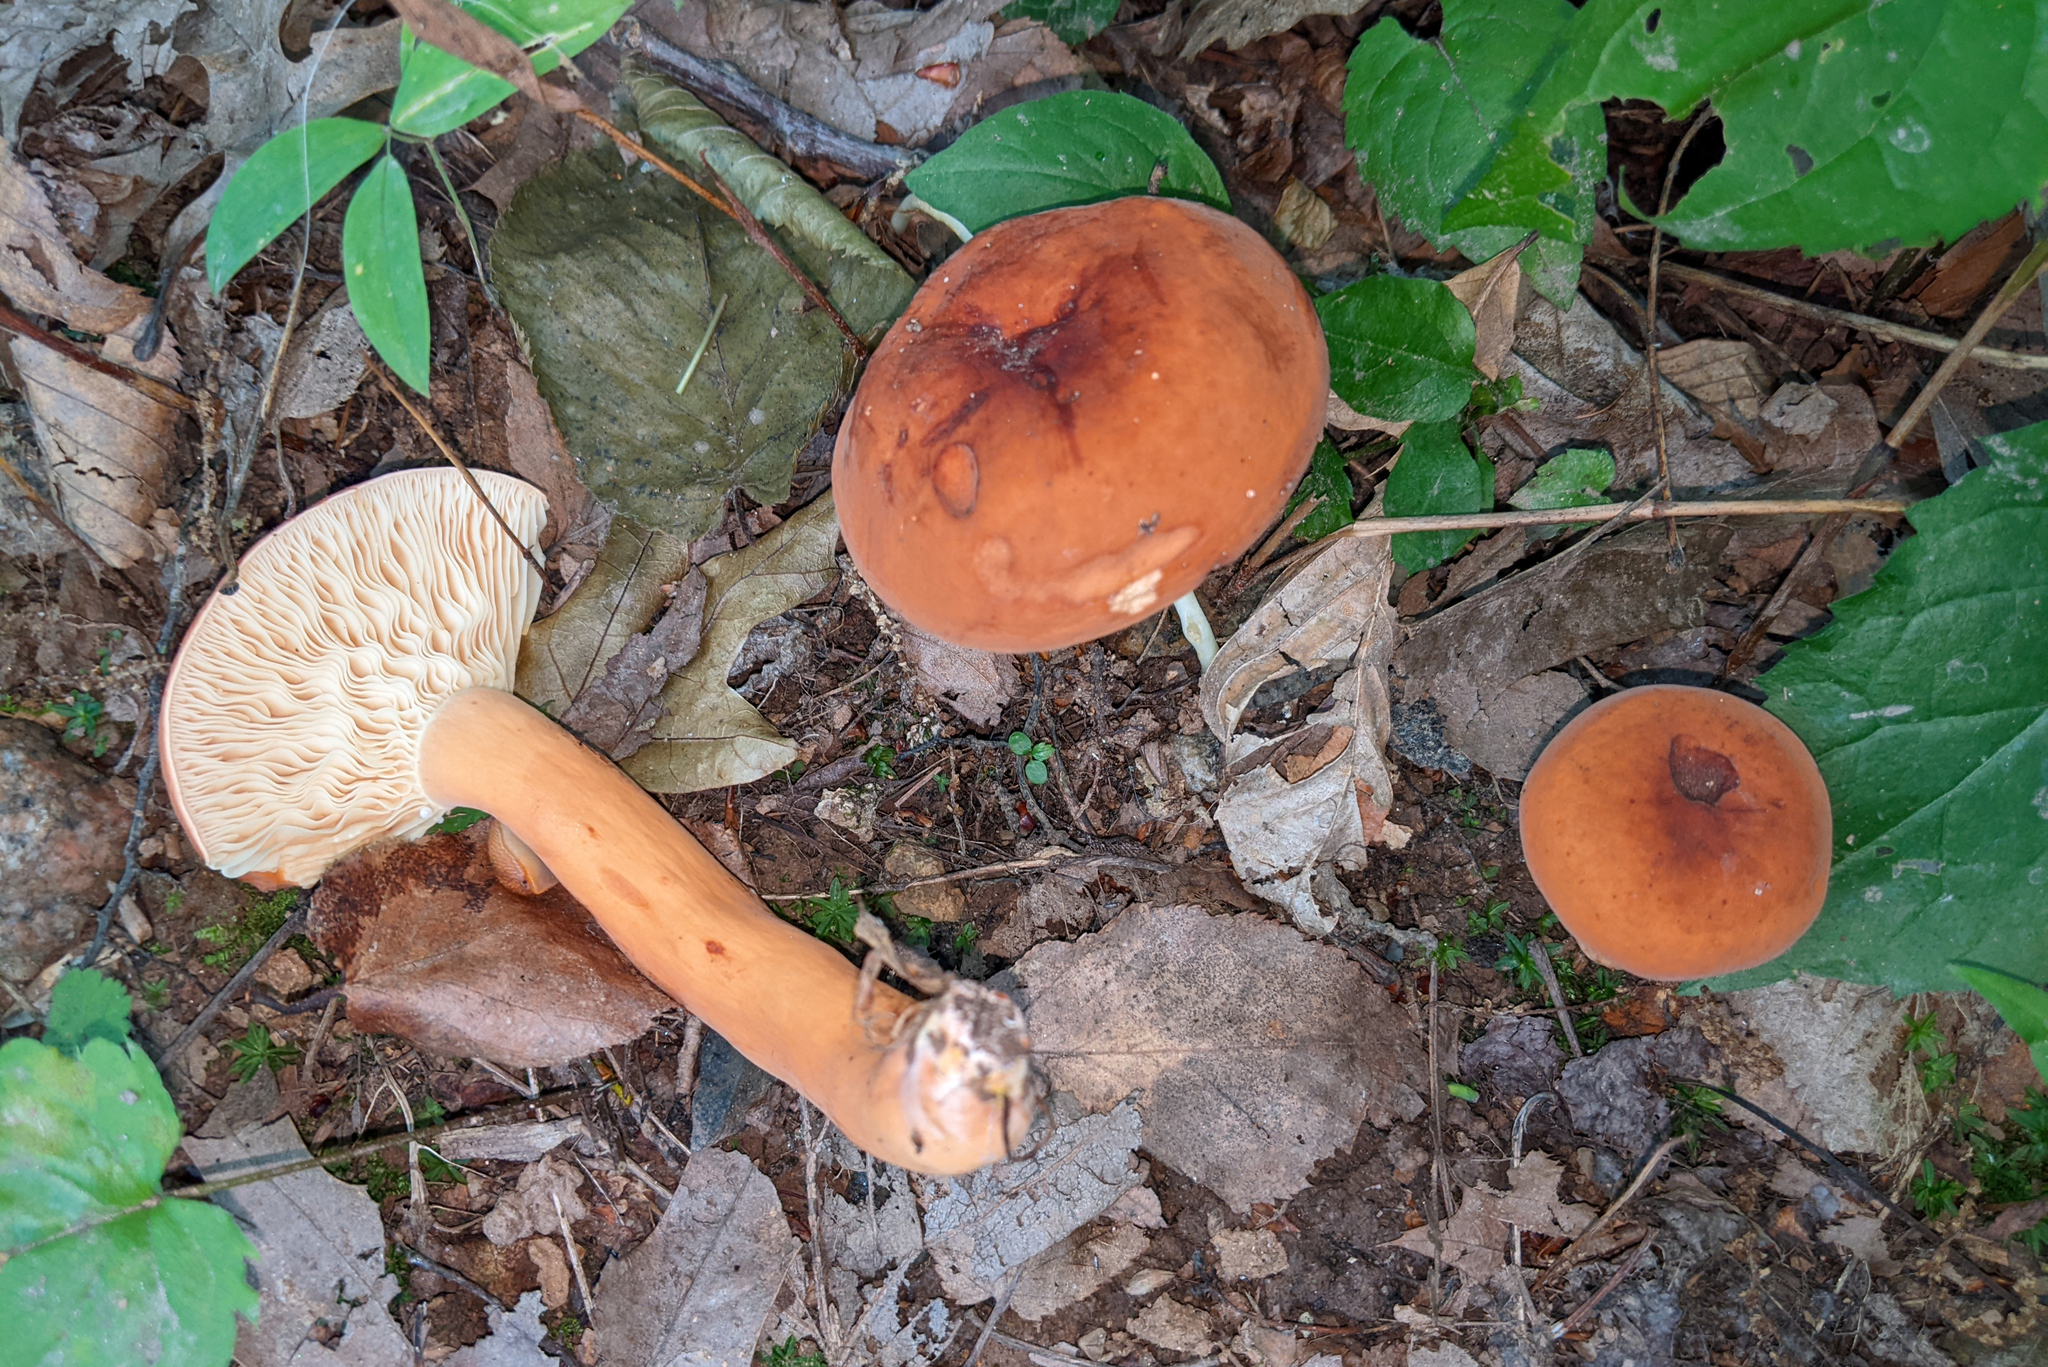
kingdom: Fungi
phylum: Basidiomycota
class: Agaricomycetes
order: Russulales
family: Russulaceae
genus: Lactifluus
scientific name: Lactifluus volemus
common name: Fishy milkcap
